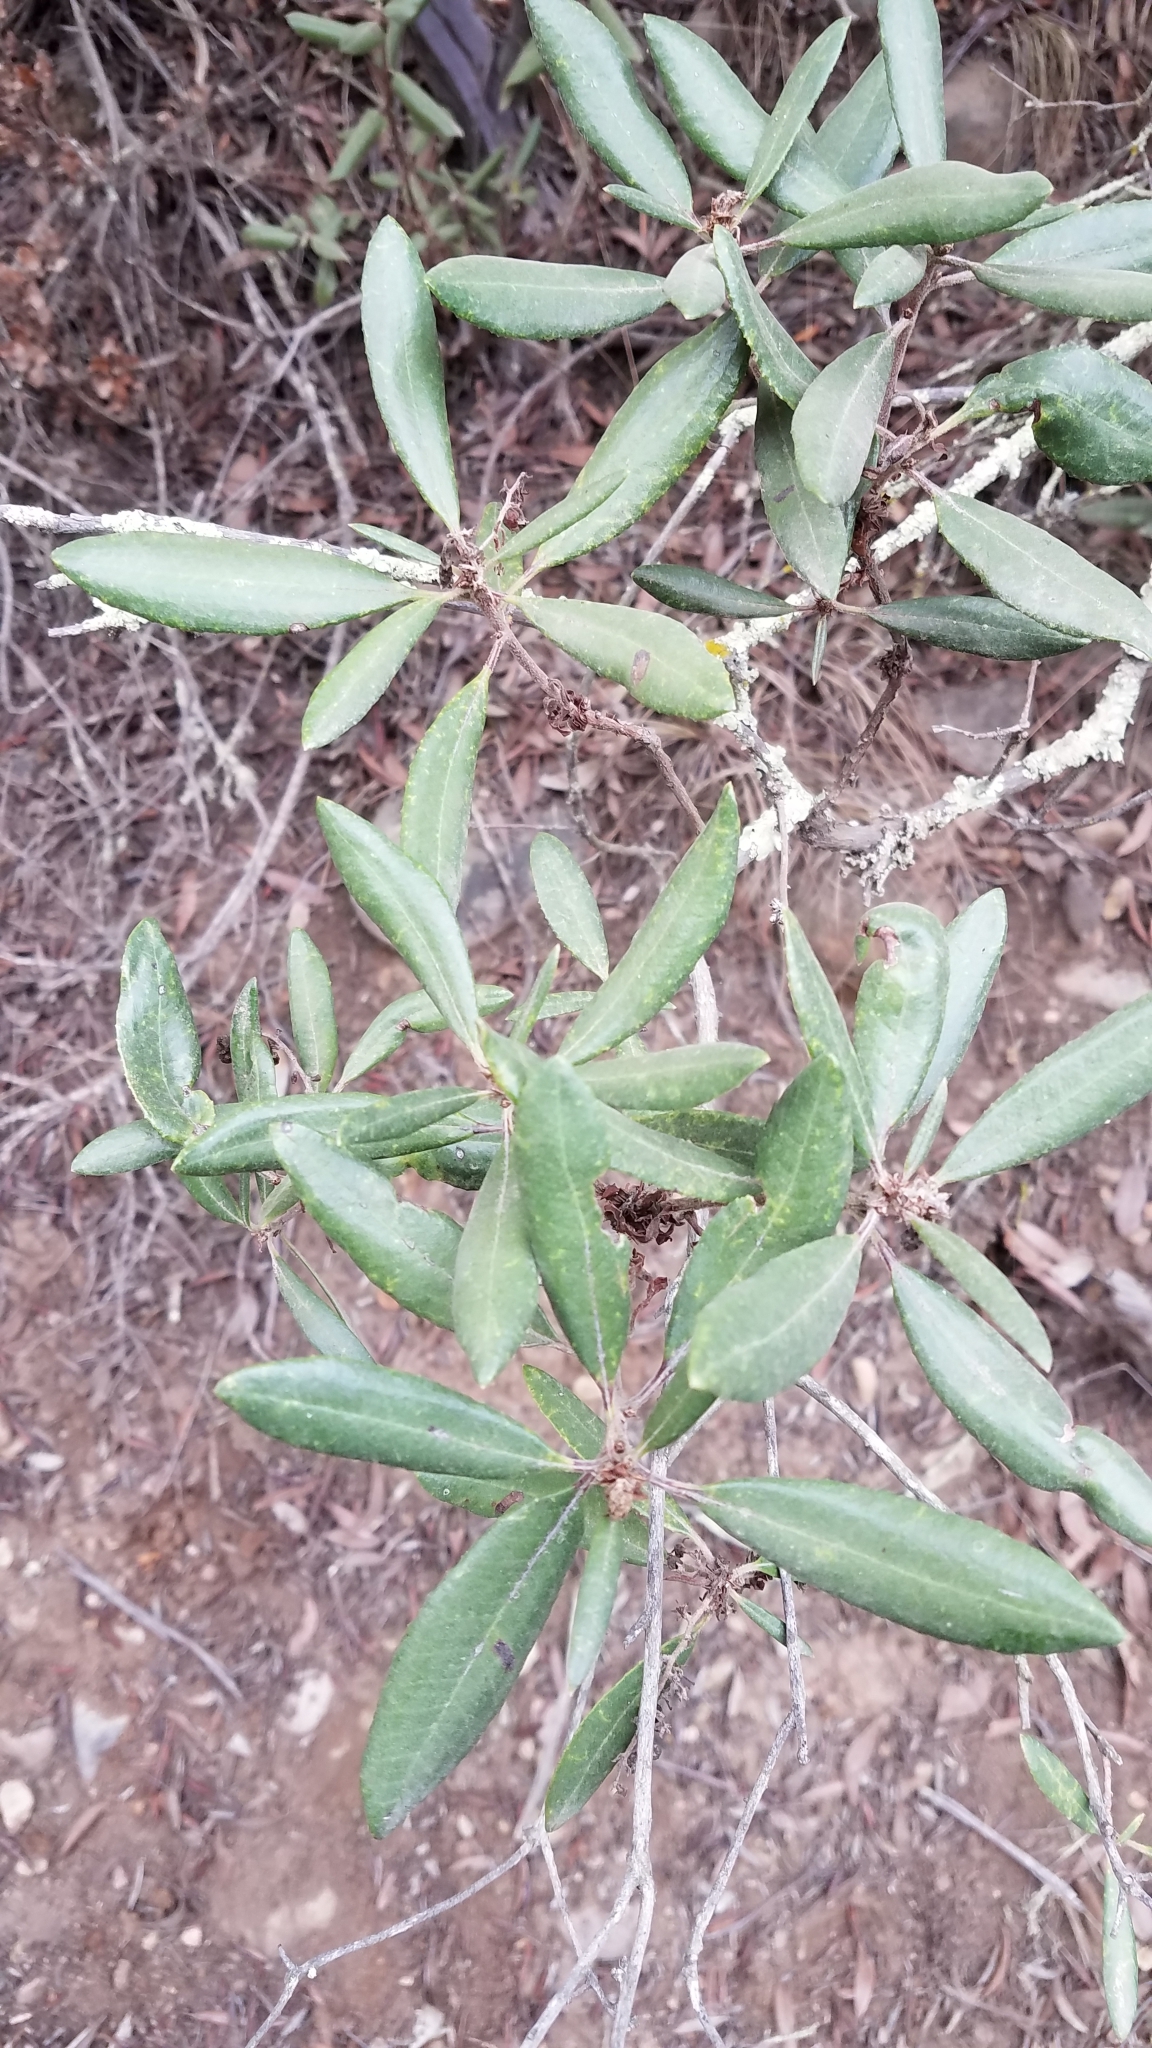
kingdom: Plantae
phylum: Tracheophyta
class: Magnoliopsida
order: Ericales
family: Ericaceae
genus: Comarostaphylis
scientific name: Comarostaphylis diversifolia
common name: Summer-holly
